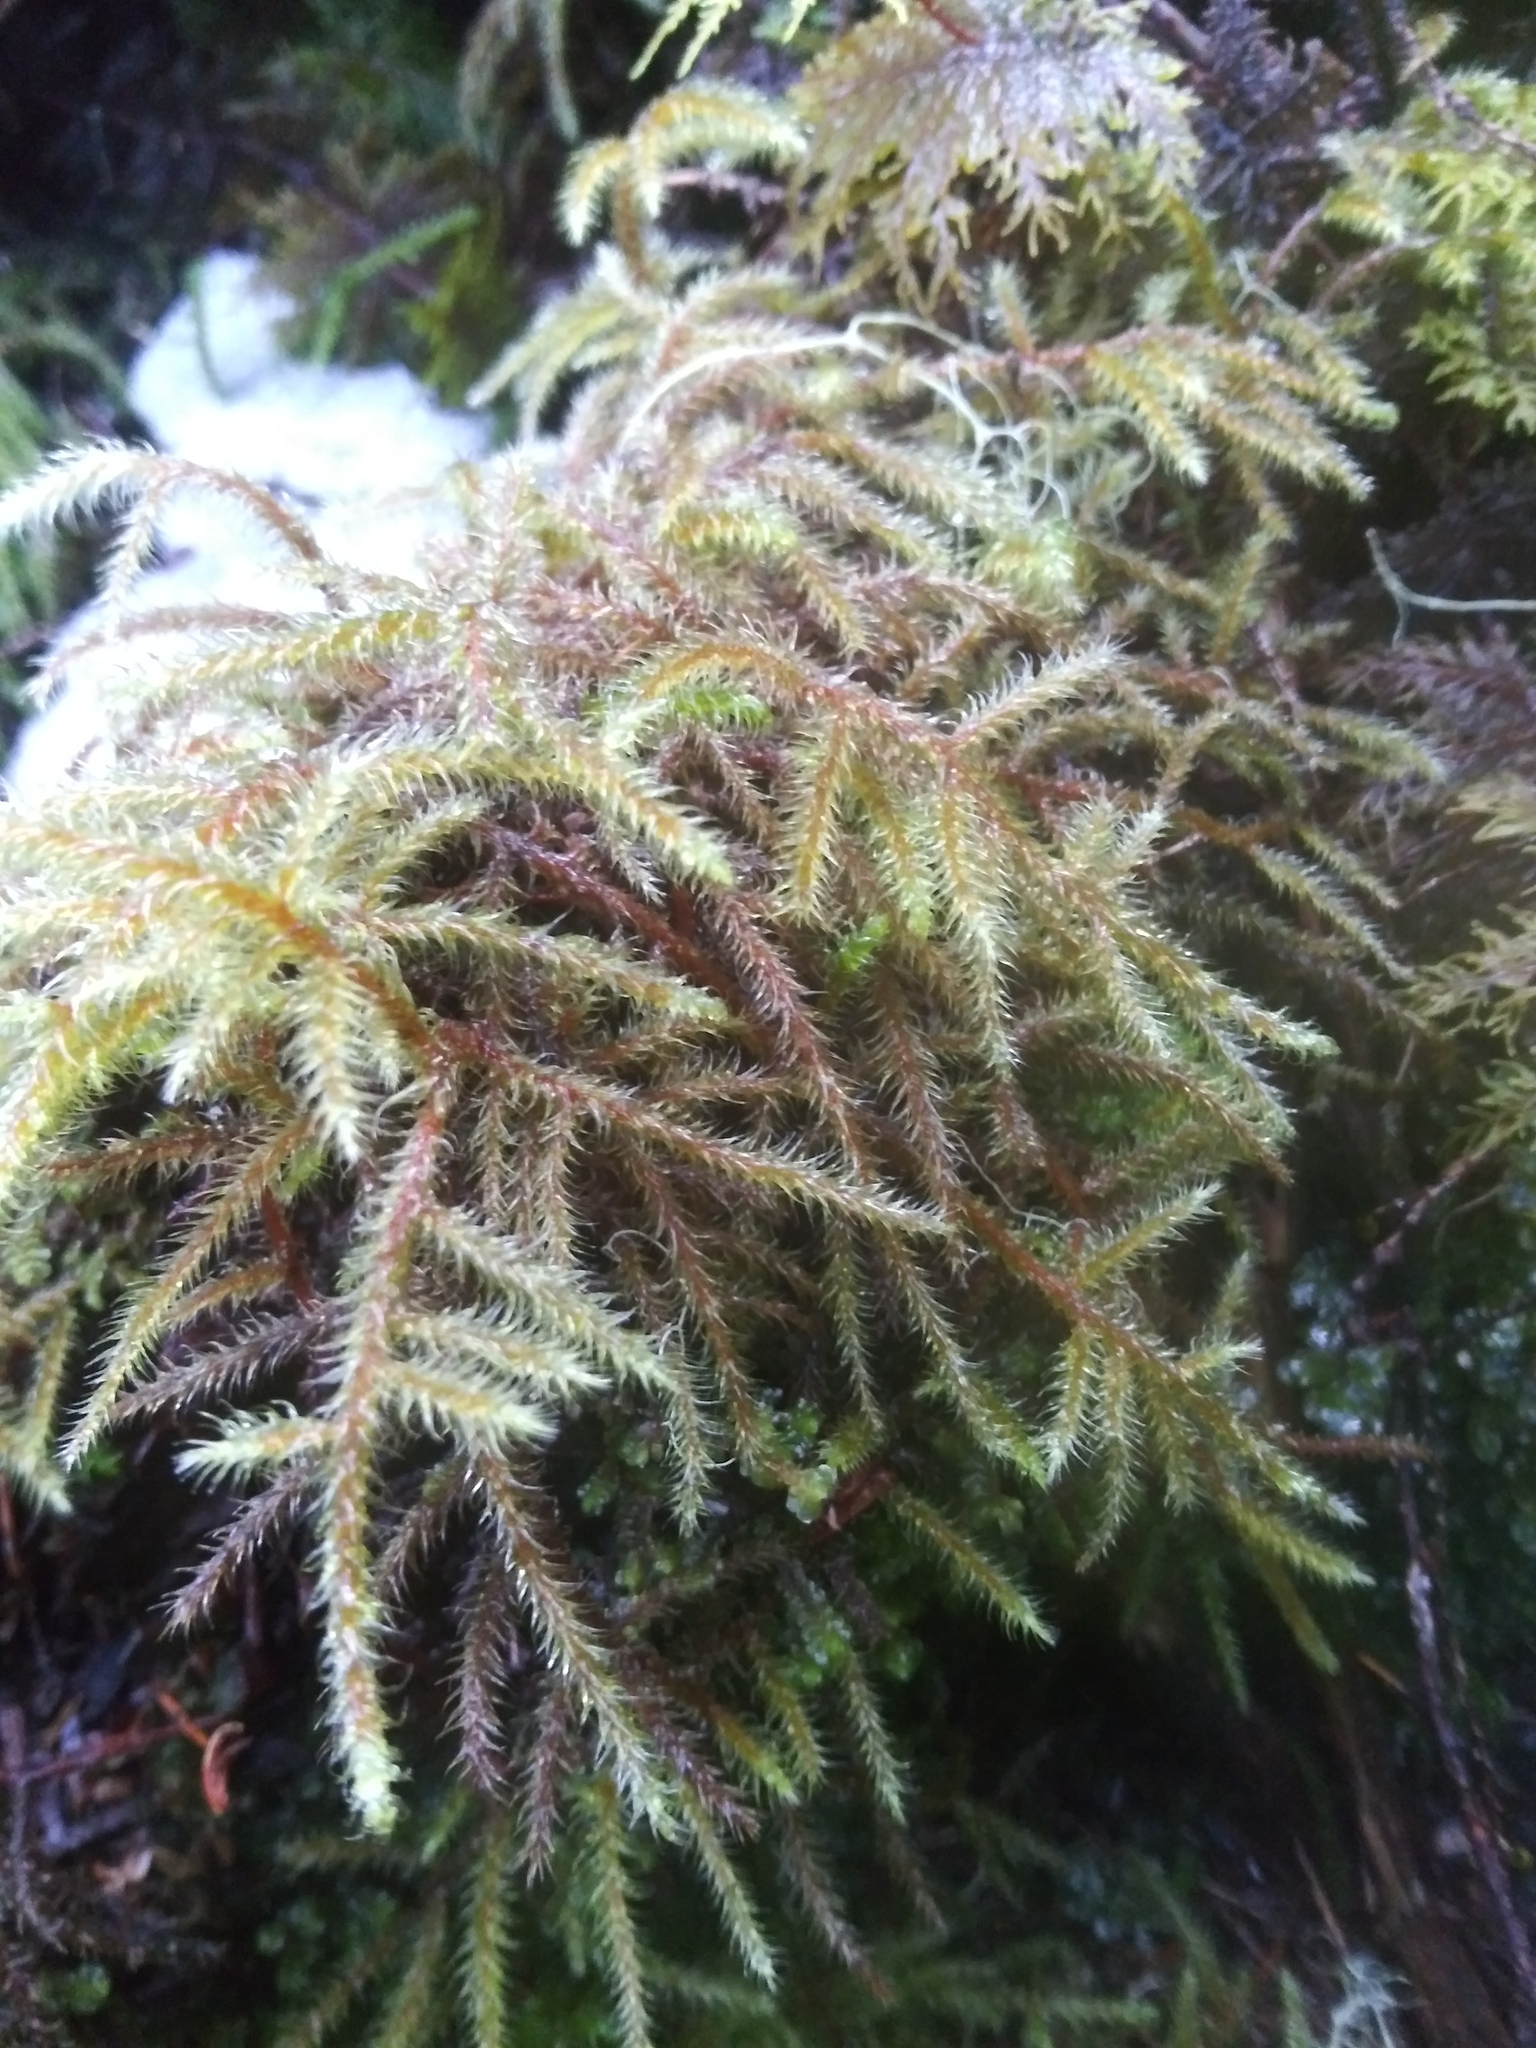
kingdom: Plantae
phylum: Bryophyta
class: Bryopsida
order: Hypnales
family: Hylocomiaceae
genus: Rhytidiadelphus
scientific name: Rhytidiadelphus loreus
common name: Lanky moss
